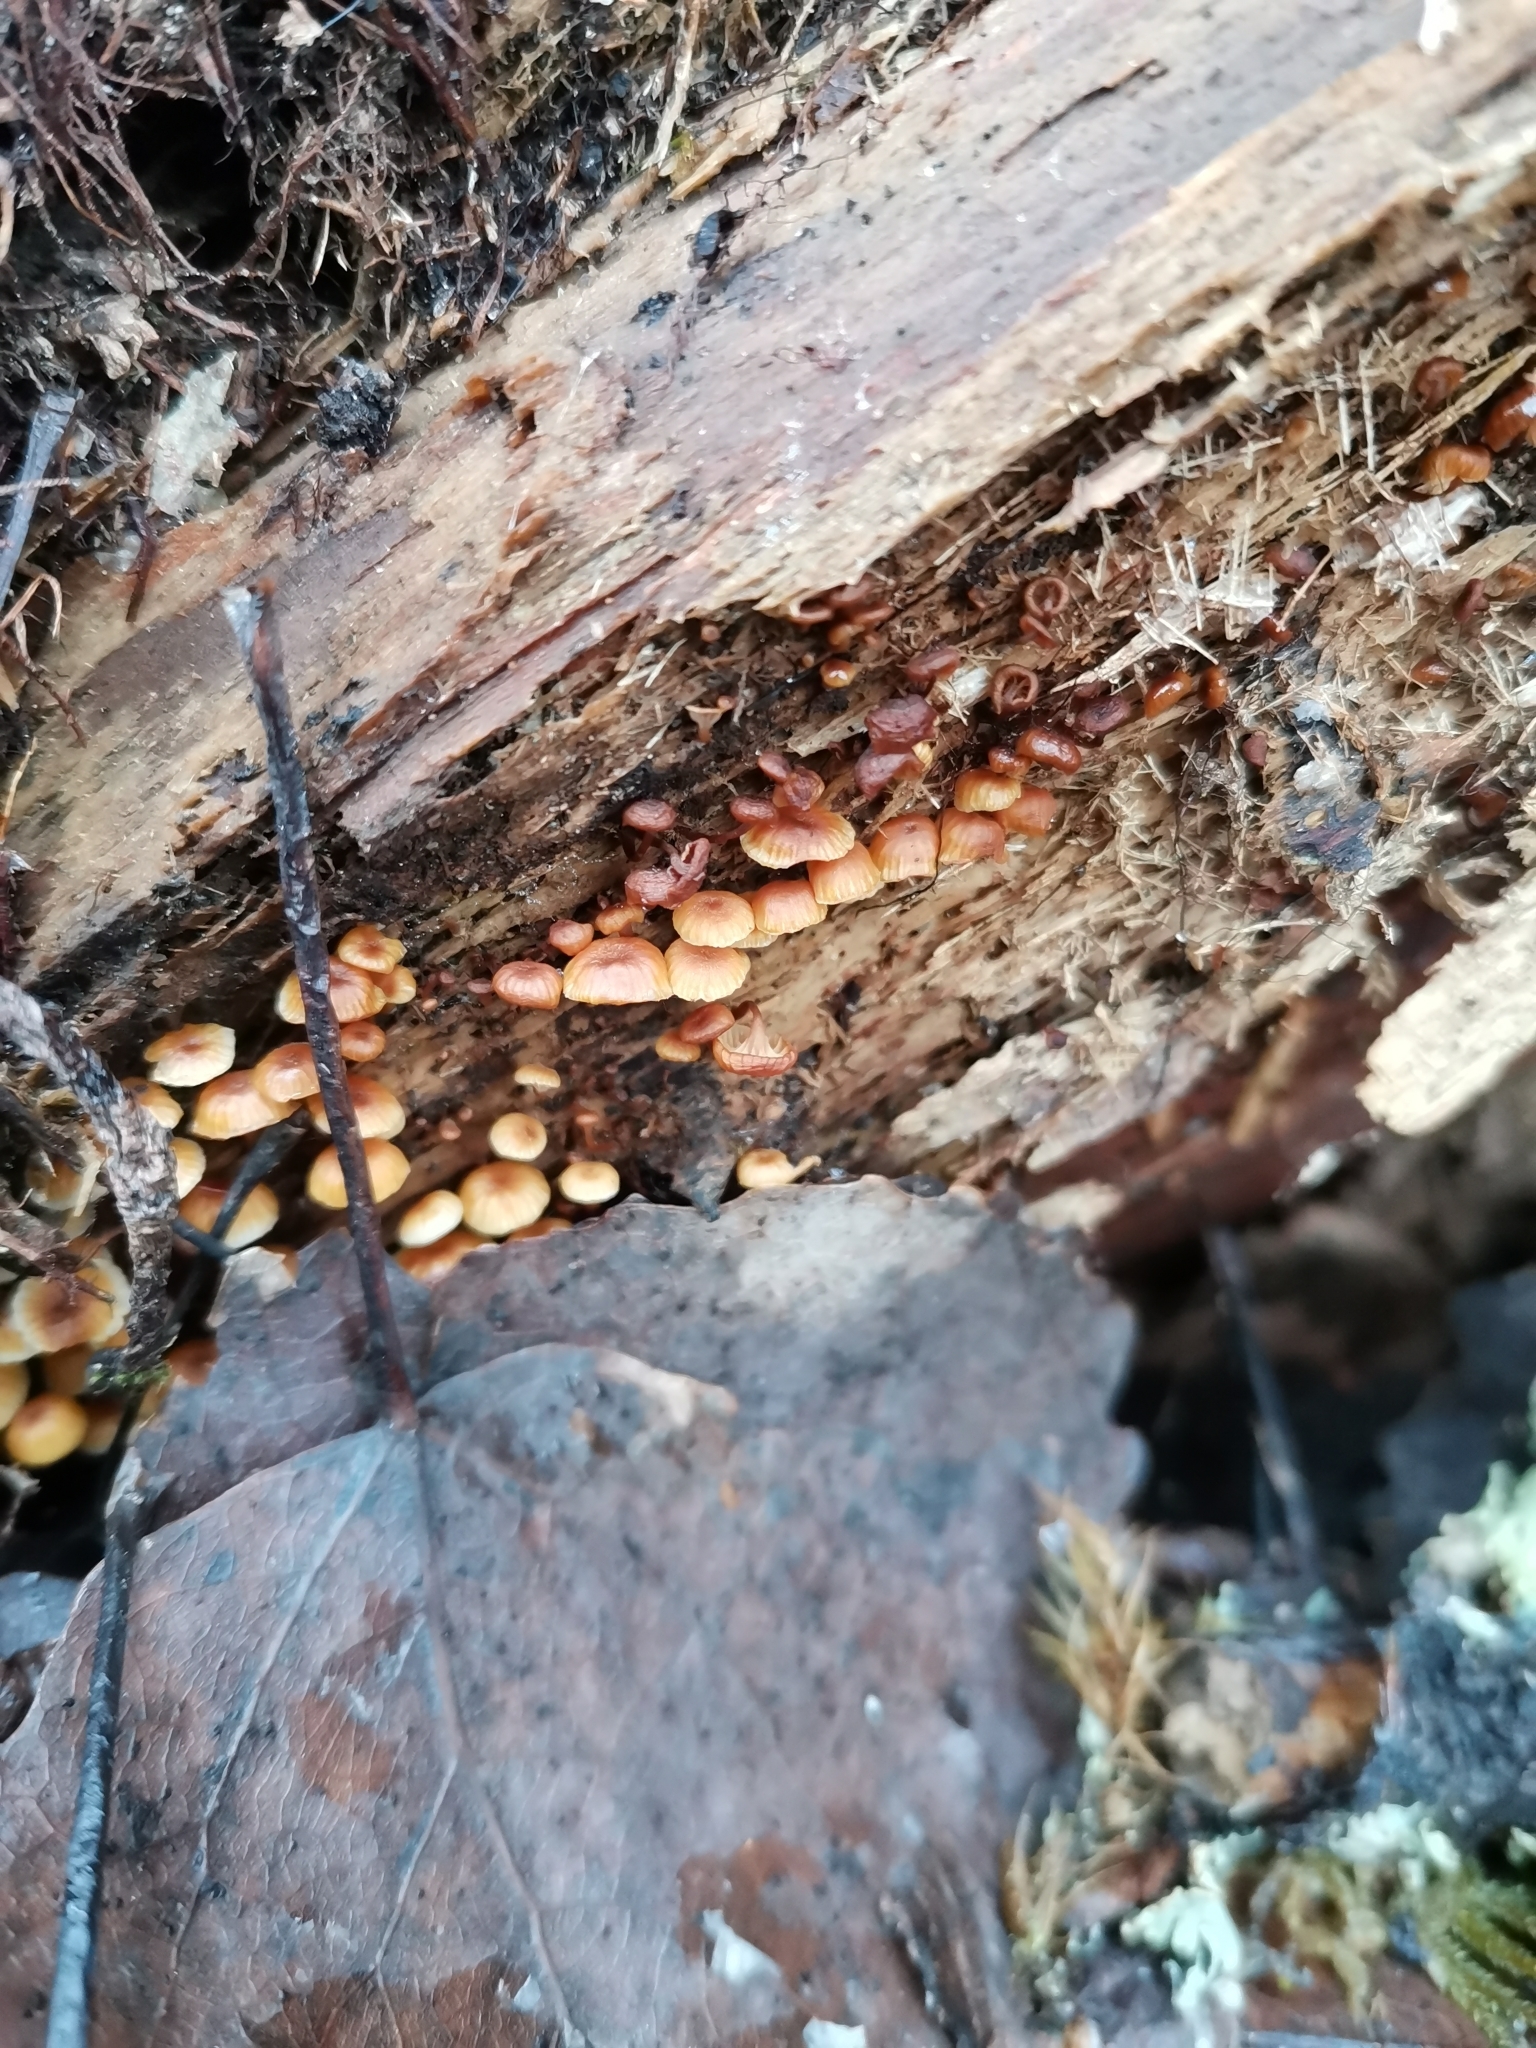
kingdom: Fungi
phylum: Basidiomycota
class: Agaricomycetes
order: Agaricales
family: Mycenaceae
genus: Xeromphalina
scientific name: Xeromphalina campanella
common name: Pinewood gingertail
